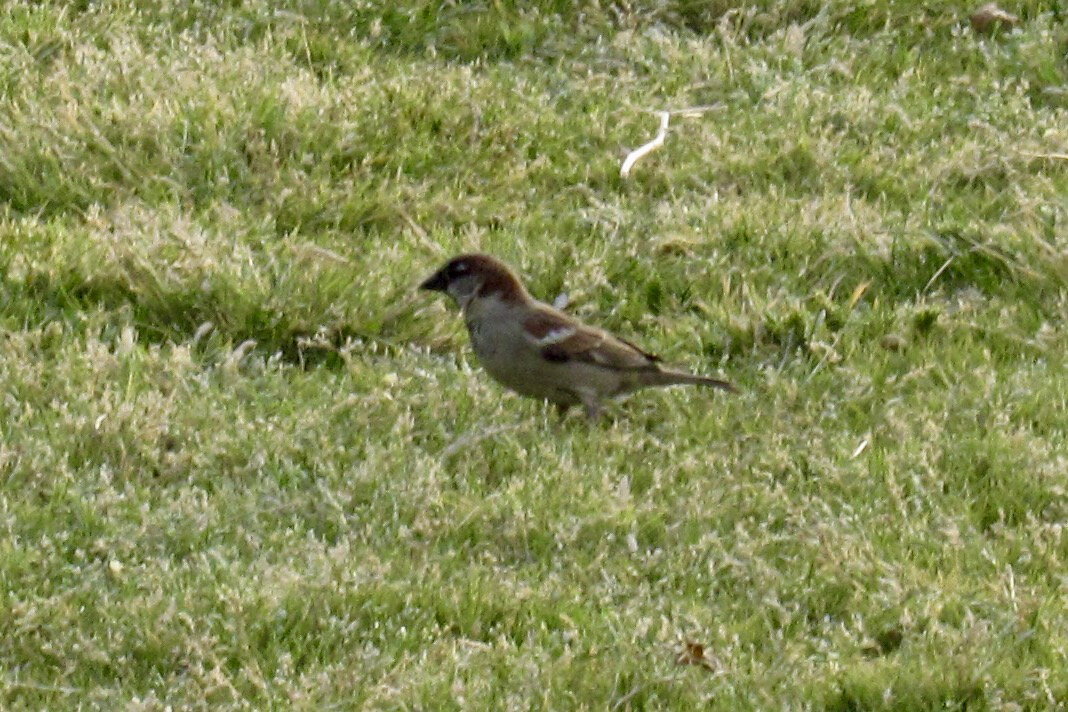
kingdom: Animalia
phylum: Chordata
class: Aves
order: Passeriformes
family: Passeridae
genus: Passer
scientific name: Passer domesticus
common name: House sparrow
